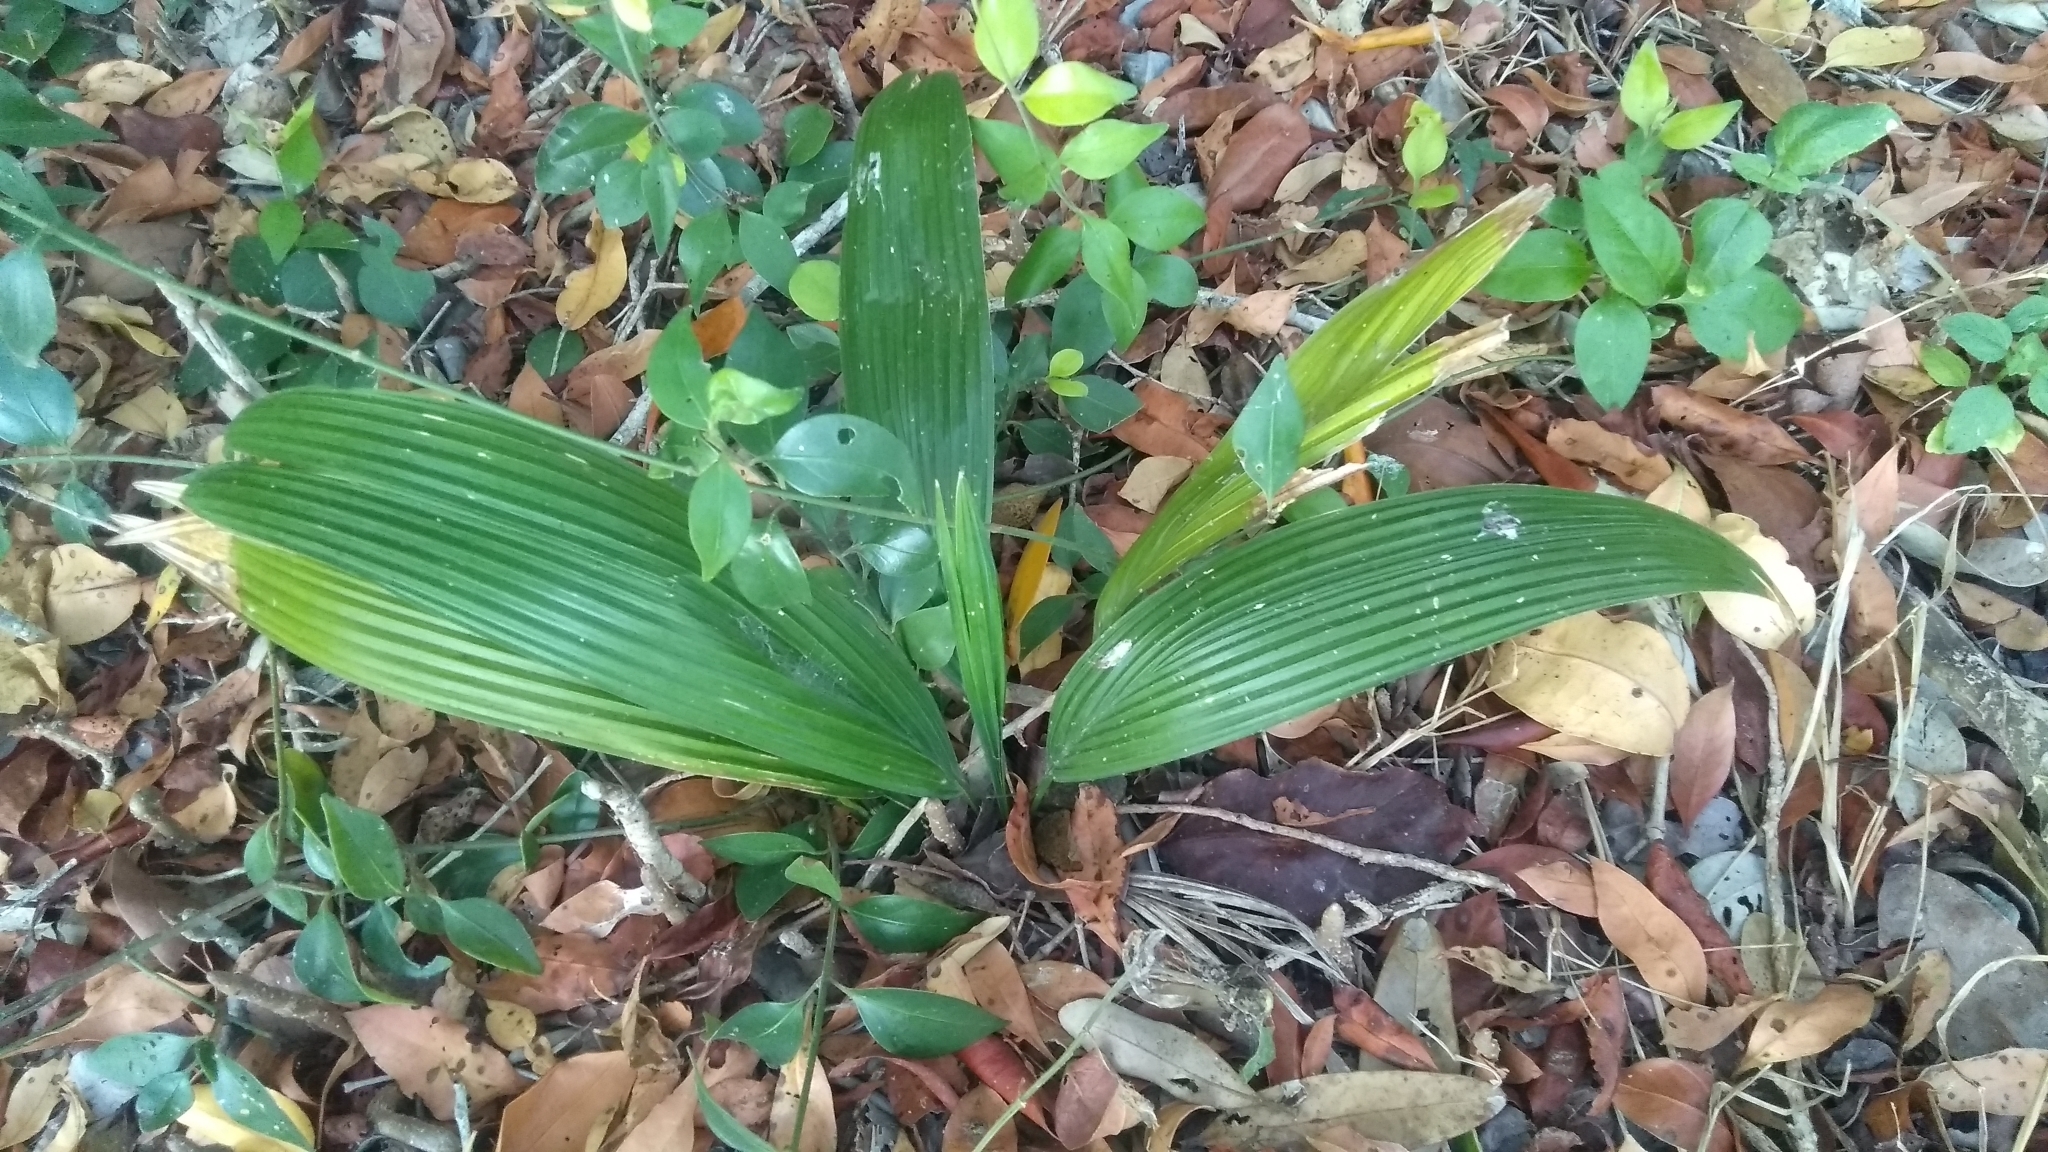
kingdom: Plantae
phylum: Tracheophyta
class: Liliopsida
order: Arecales
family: Arecaceae
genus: Cocos
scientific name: Cocos nucifera
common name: Coconut palm
